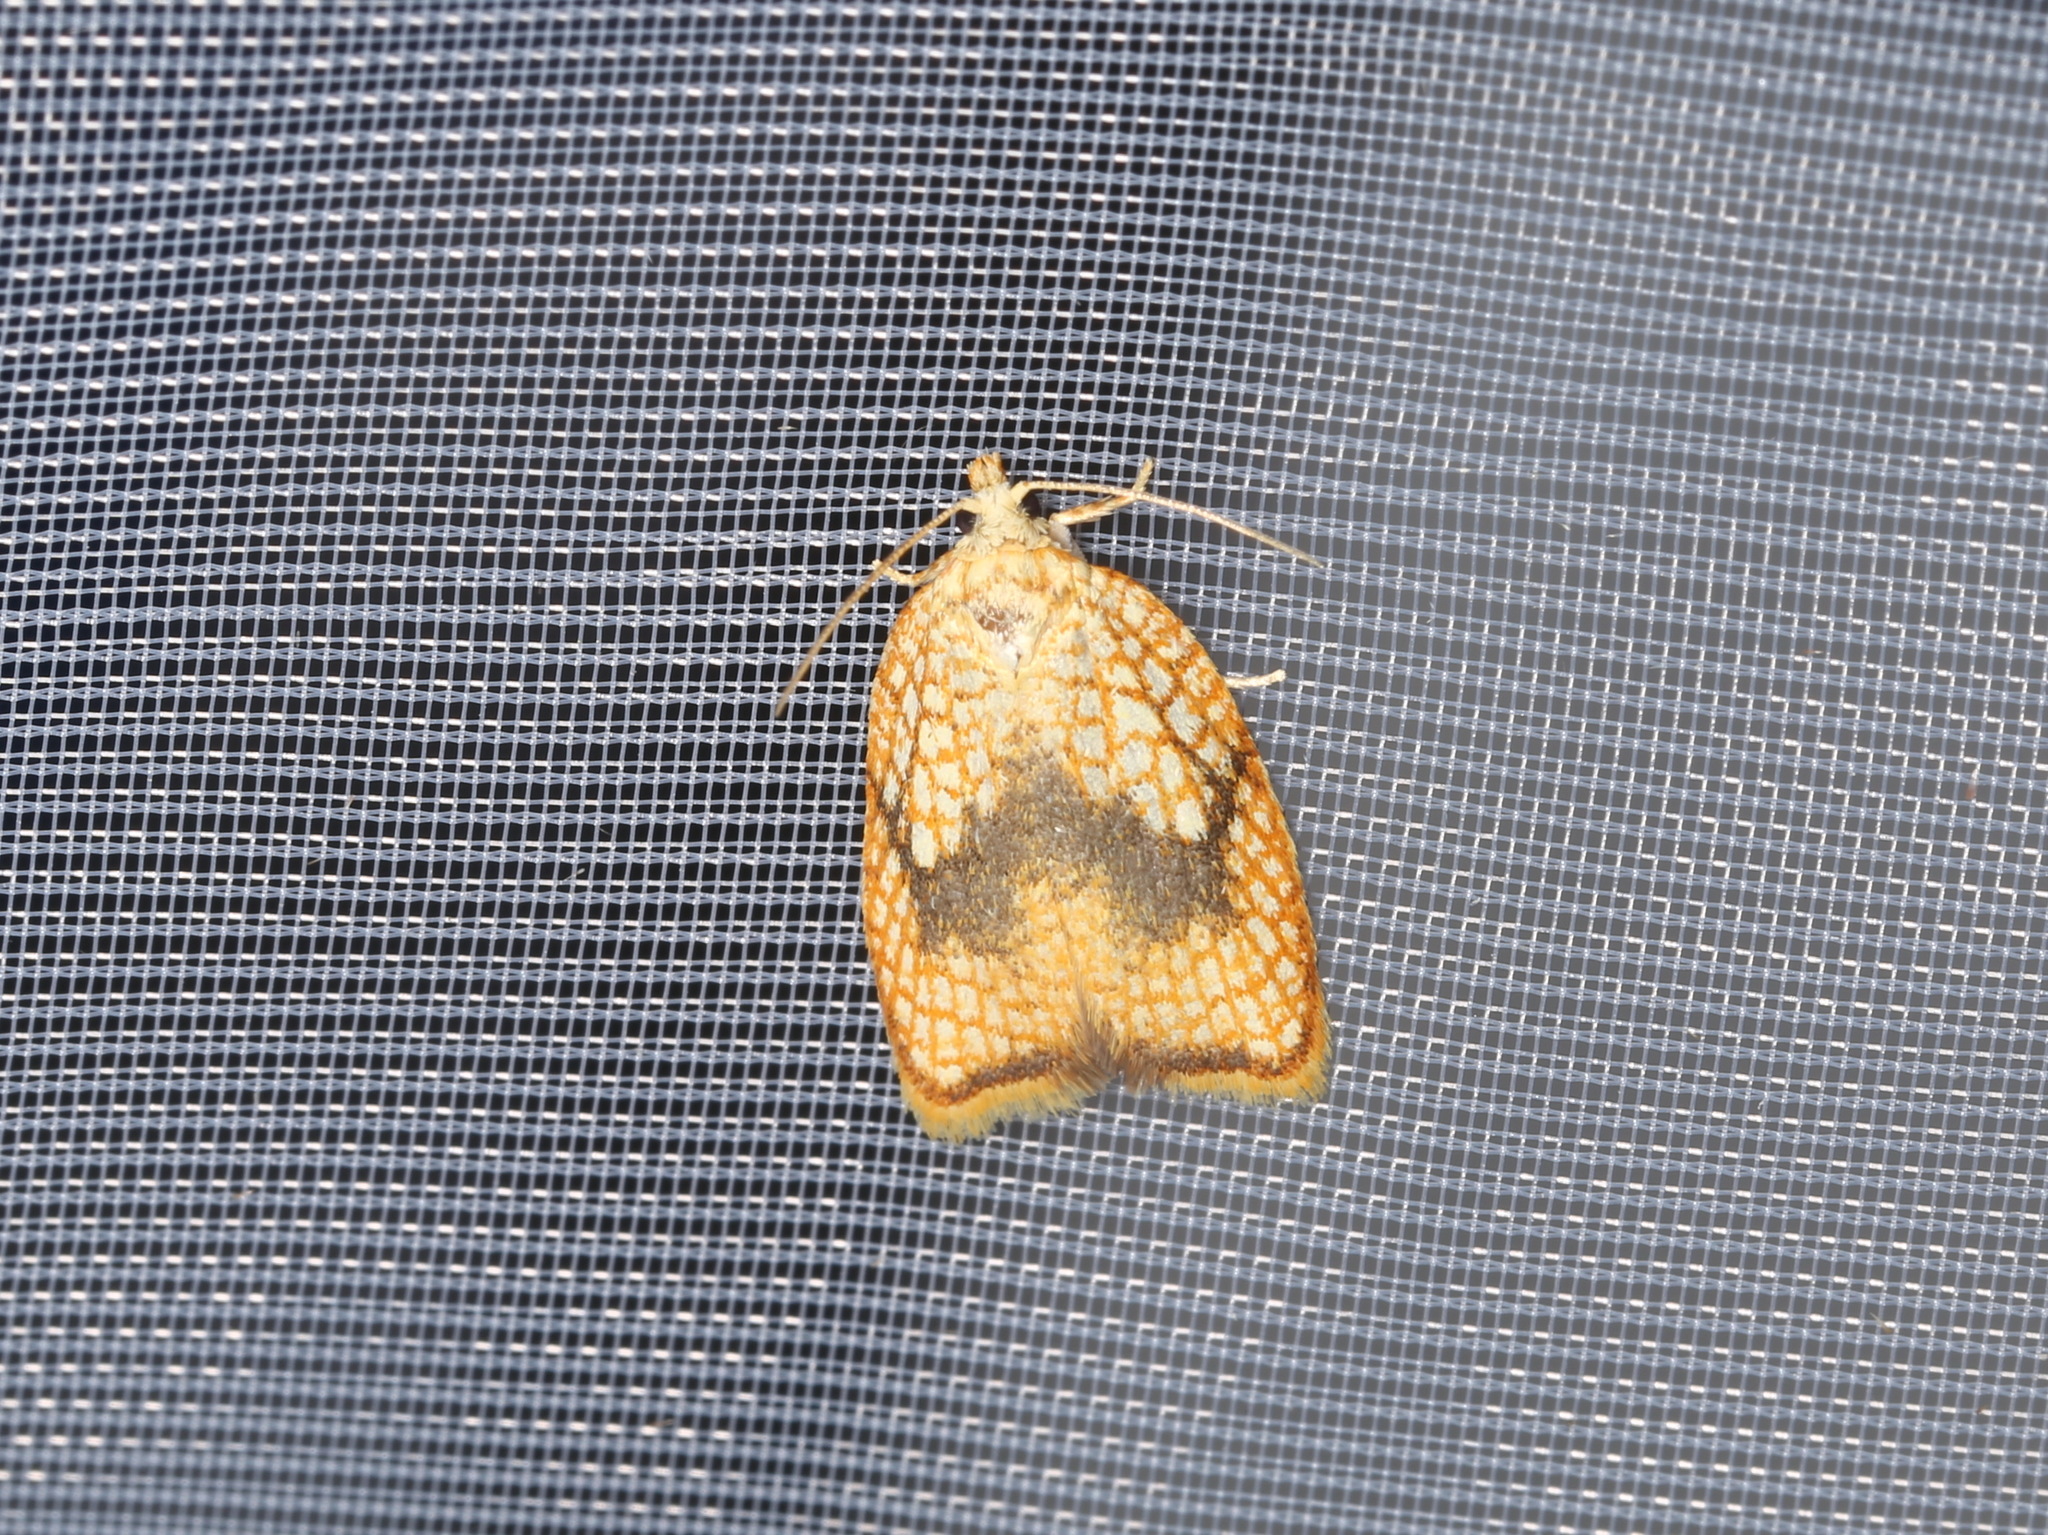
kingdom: Animalia
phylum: Arthropoda
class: Insecta
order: Lepidoptera
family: Tortricidae
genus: Acleris
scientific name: Acleris forsskaleana
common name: Maple button
